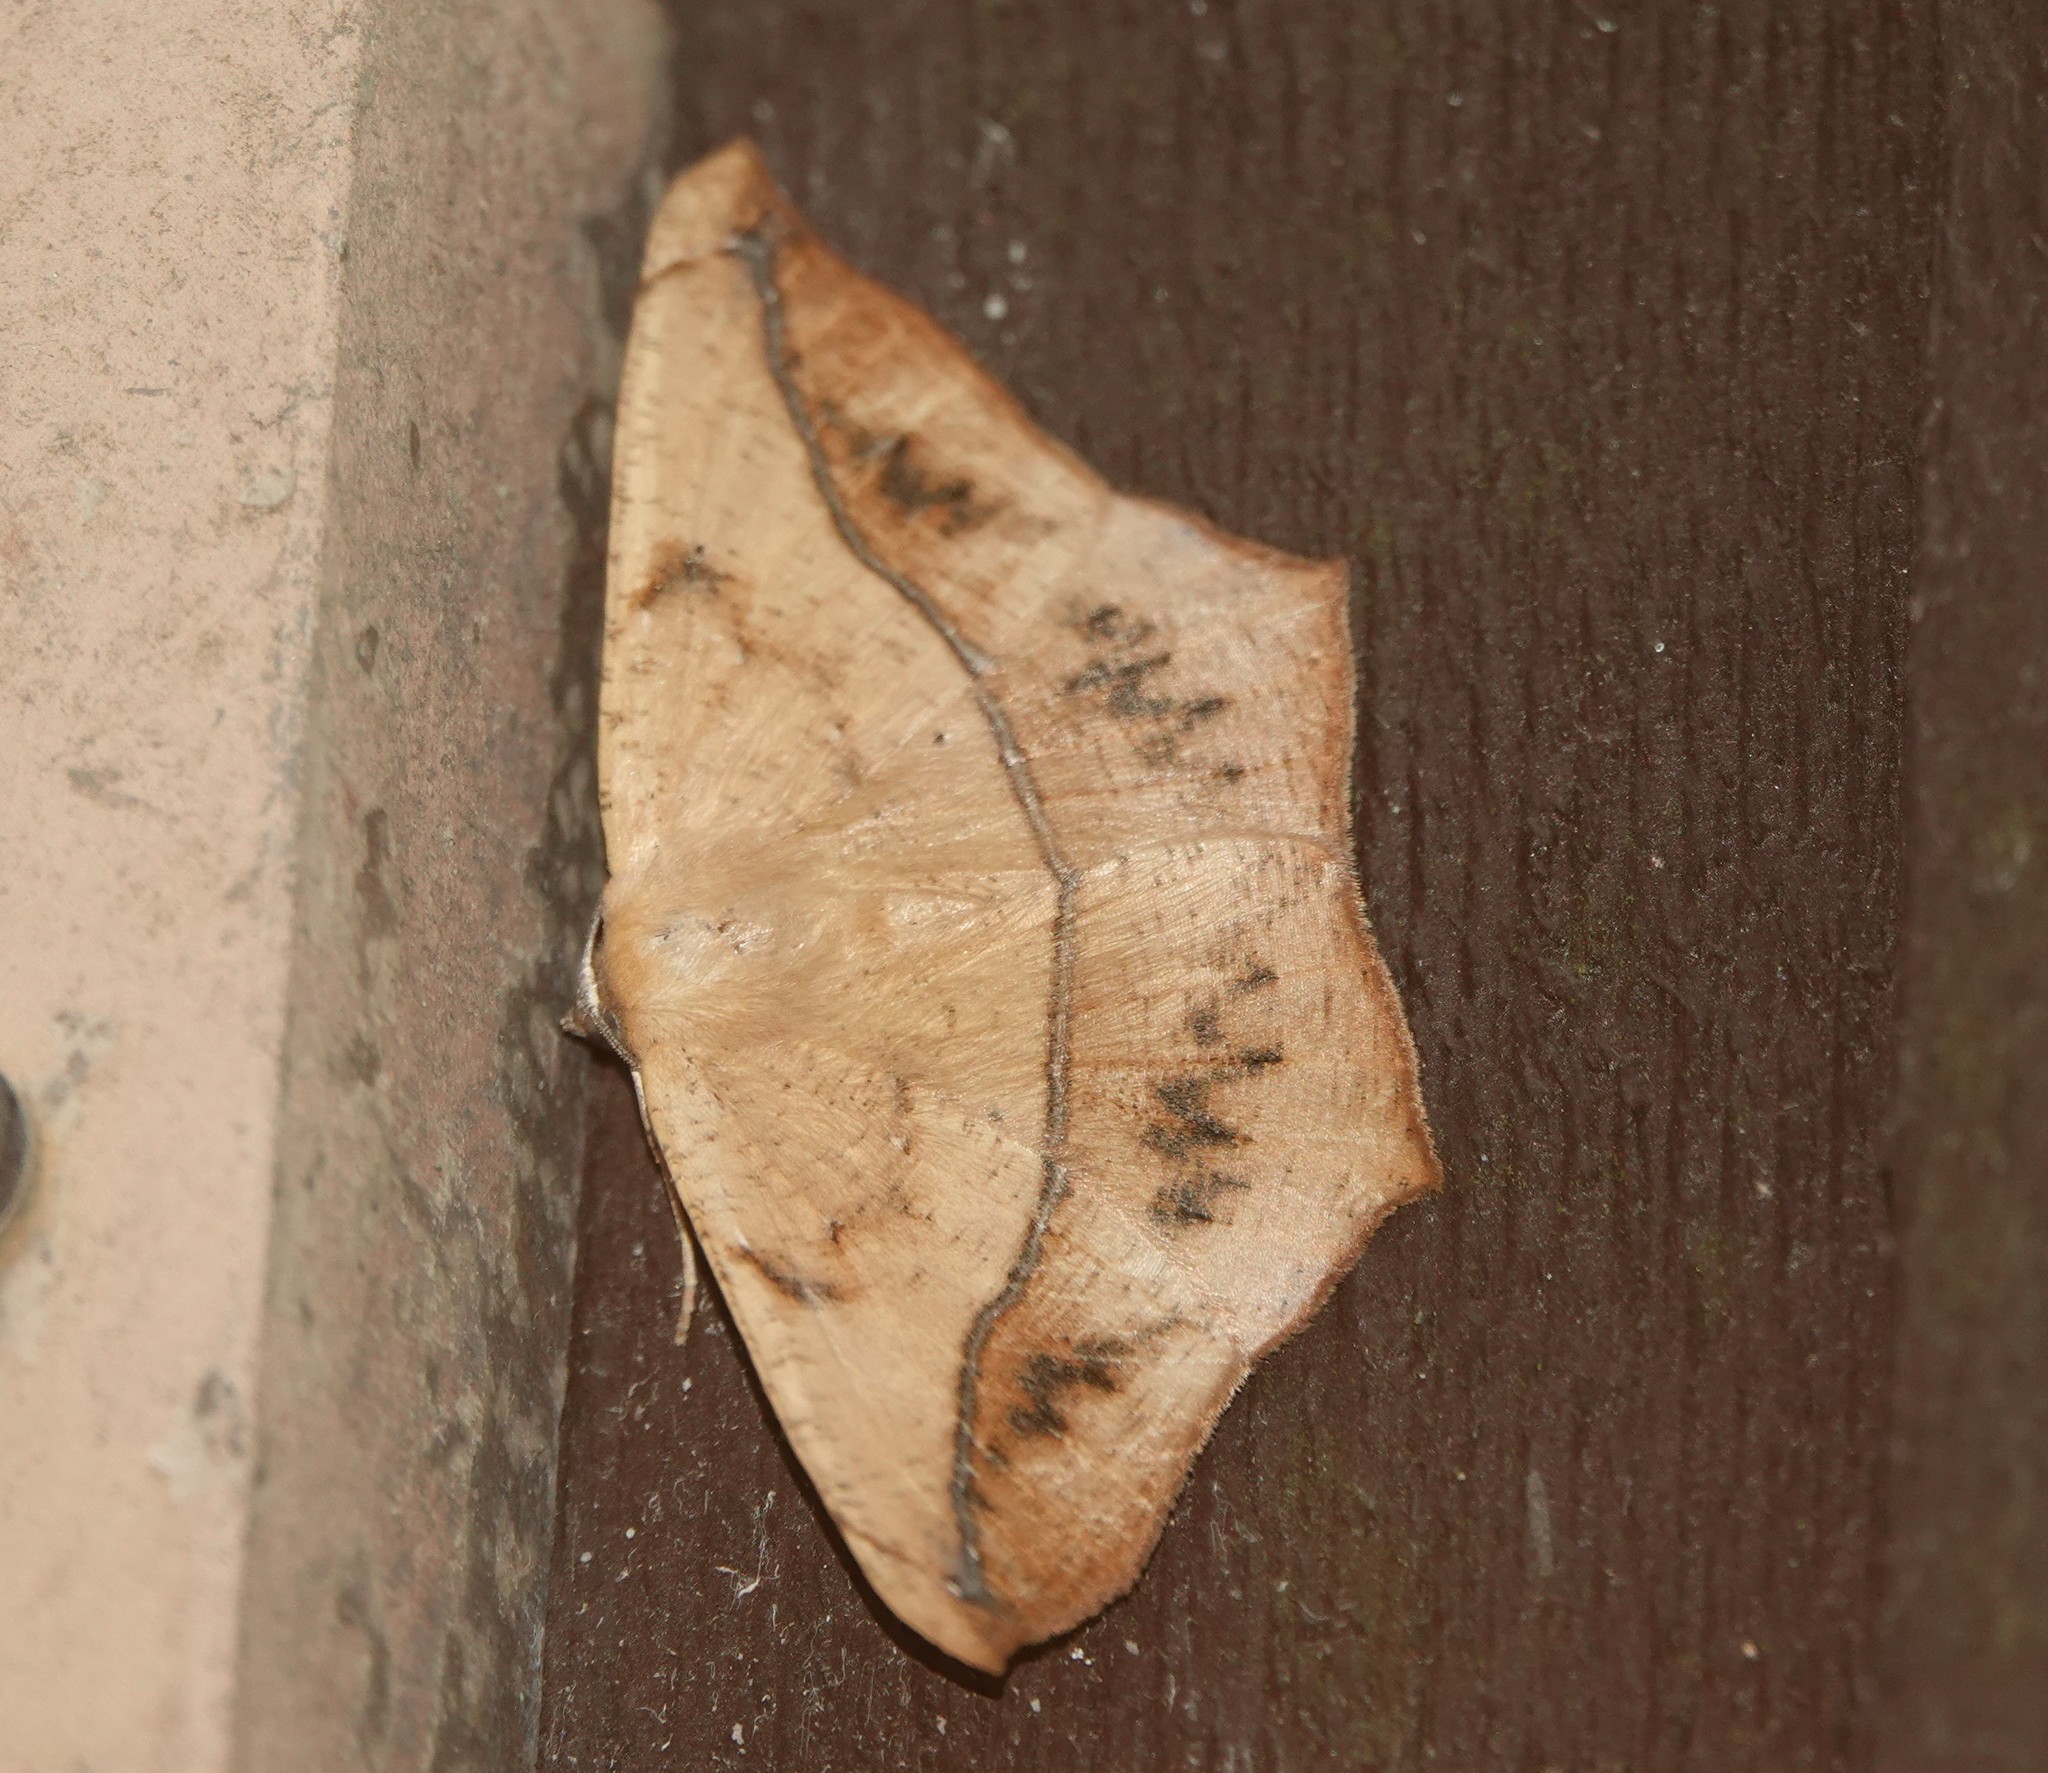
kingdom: Animalia
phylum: Arthropoda
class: Insecta
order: Lepidoptera
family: Geometridae
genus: Prochoerodes
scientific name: Prochoerodes lineola
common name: Large maple spanworm
